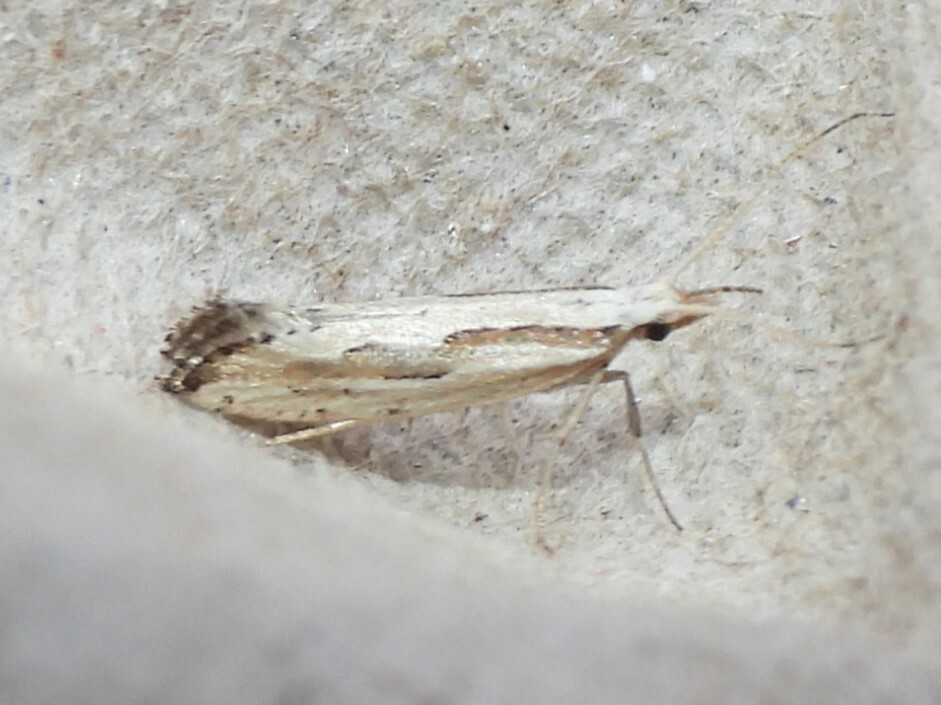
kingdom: Animalia
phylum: Arthropoda
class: Insecta
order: Lepidoptera
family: Plutellidae
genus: Plutella
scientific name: Plutella porrectella
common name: Dame's rocket moth
